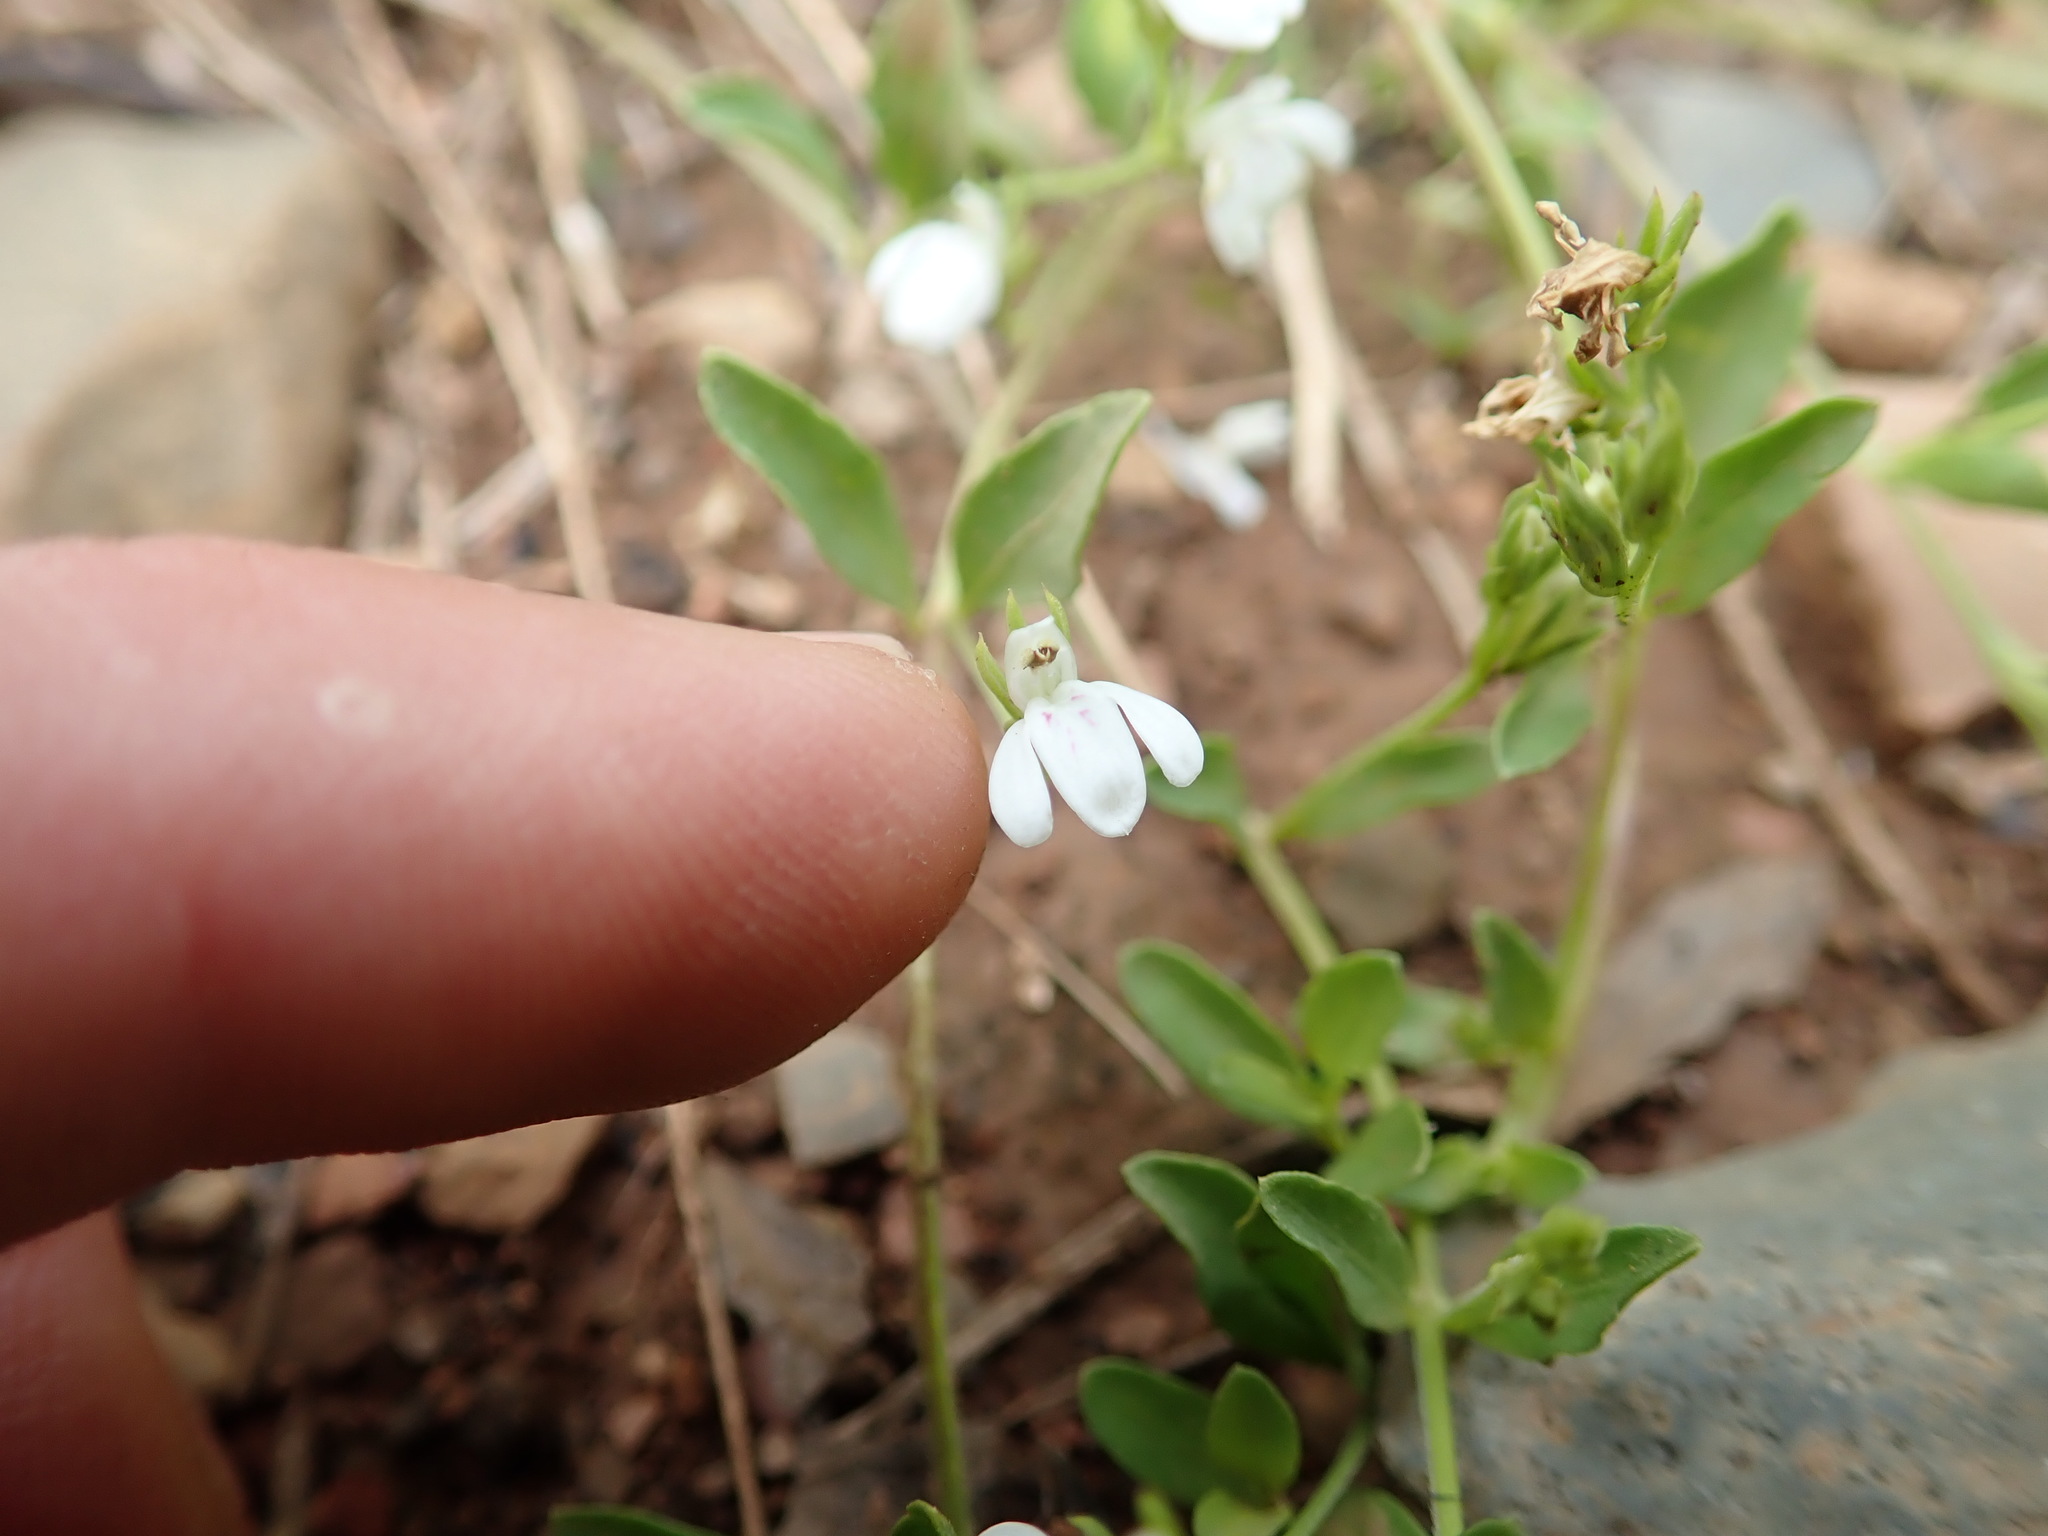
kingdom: Plantae
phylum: Tracheophyta
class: Magnoliopsida
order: Lamiales
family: Acanthaceae
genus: Justicia
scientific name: Justicia anagalloides
